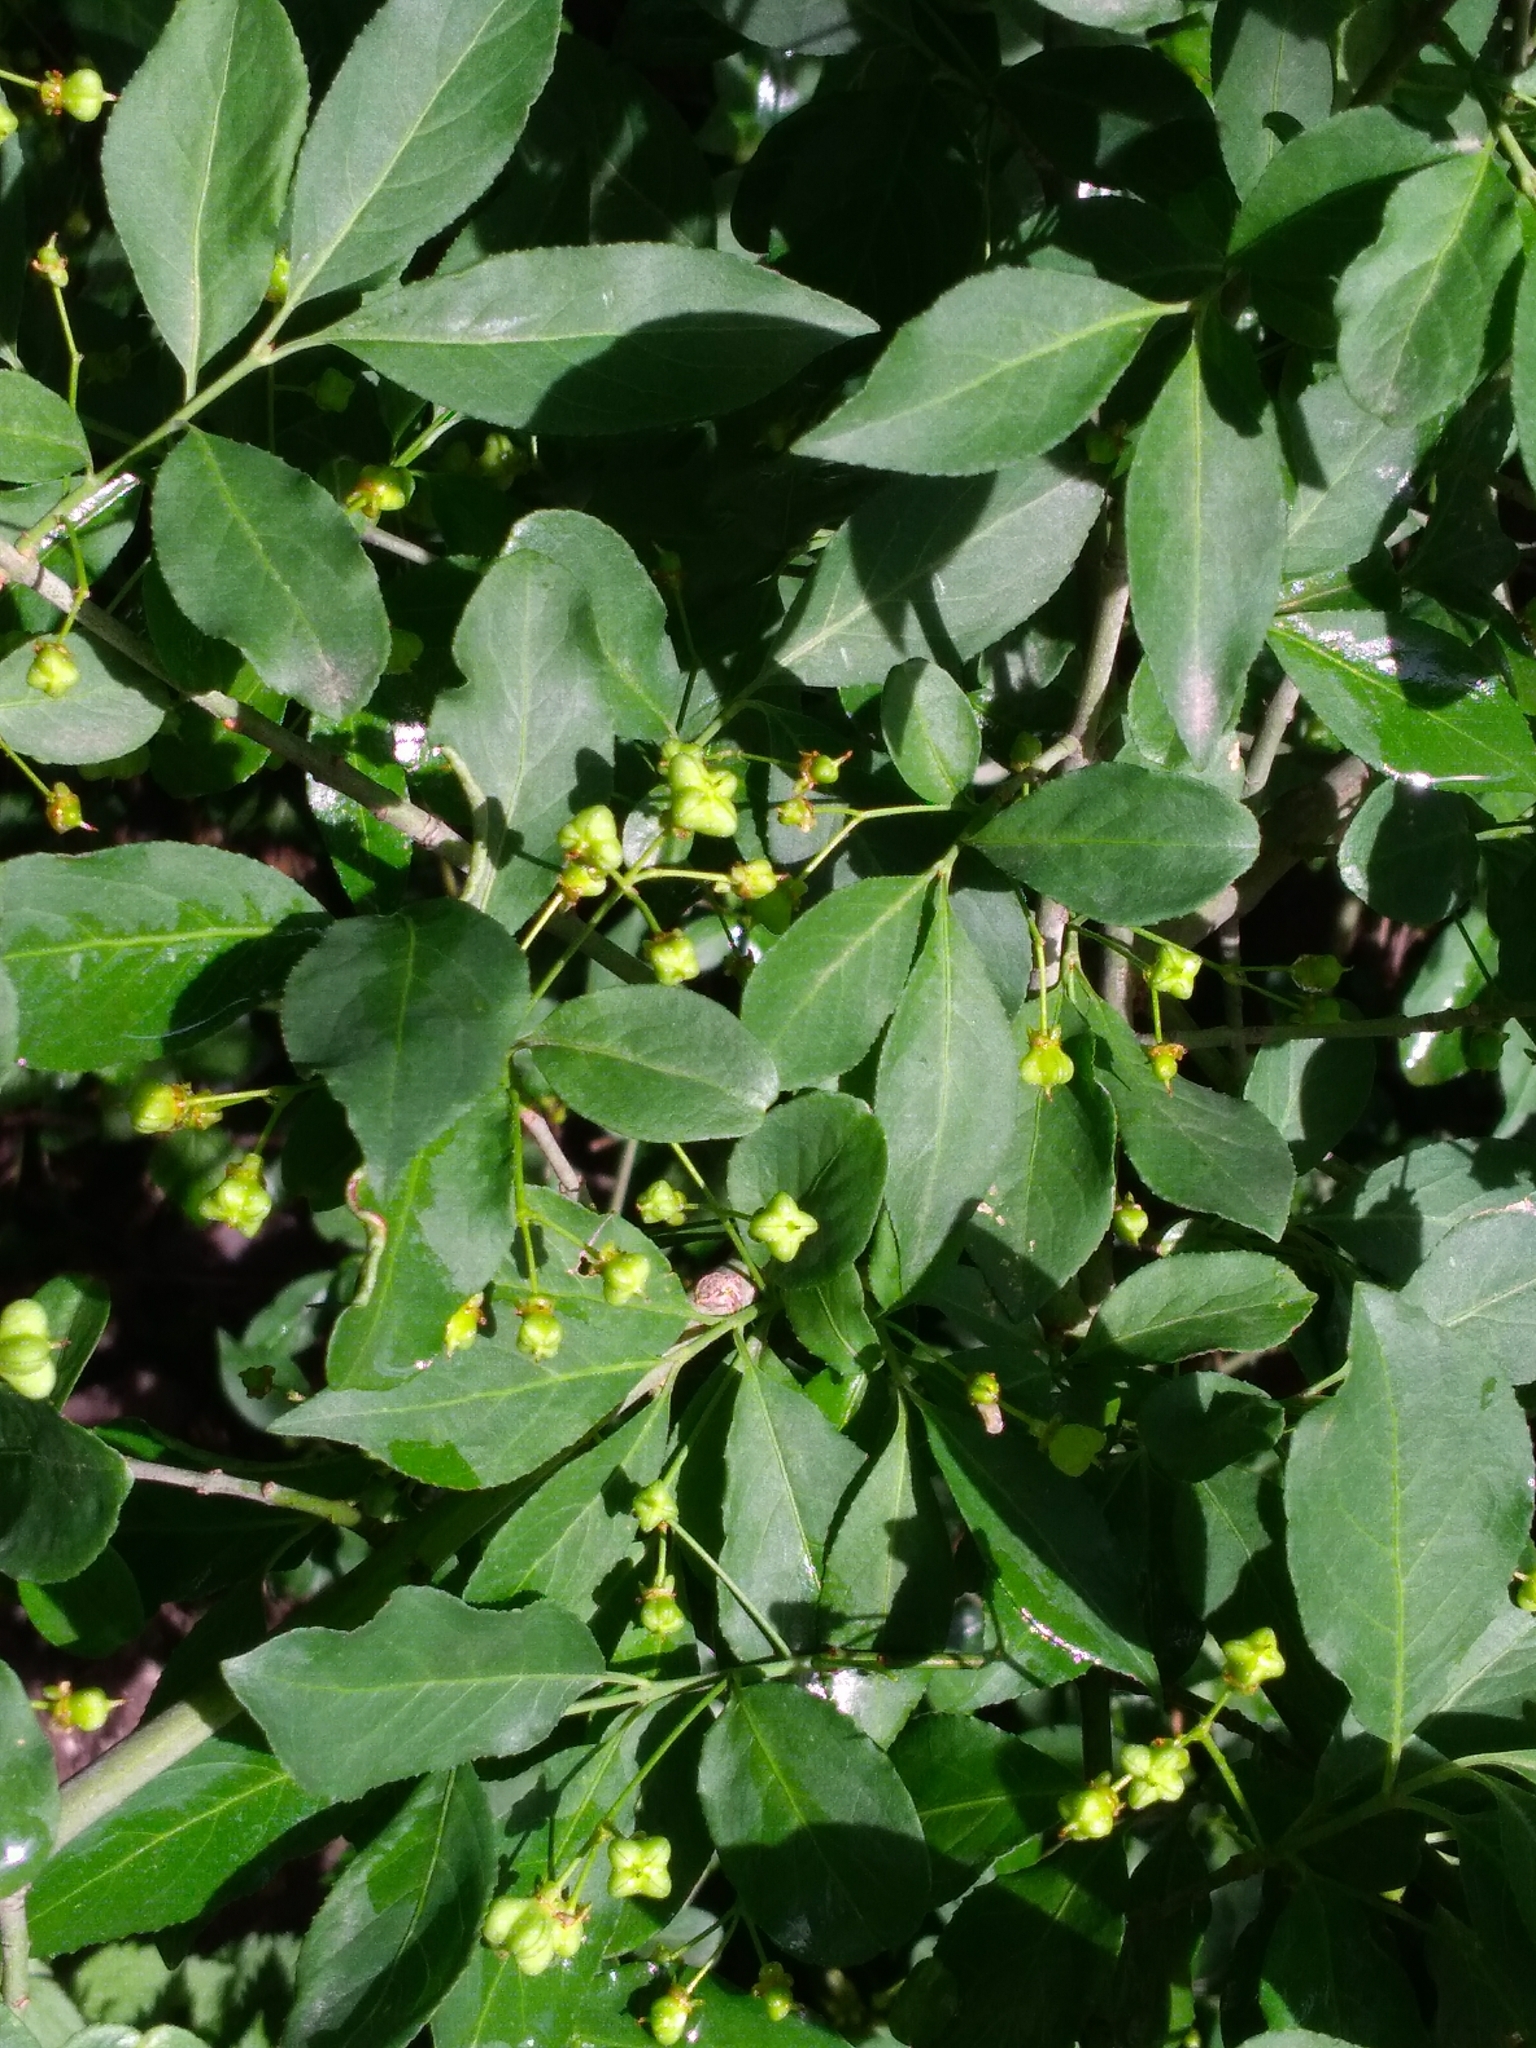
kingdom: Plantae
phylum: Tracheophyta
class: Magnoliopsida
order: Celastrales
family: Celastraceae
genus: Euonymus
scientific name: Euonymus europaeus
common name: Spindle
